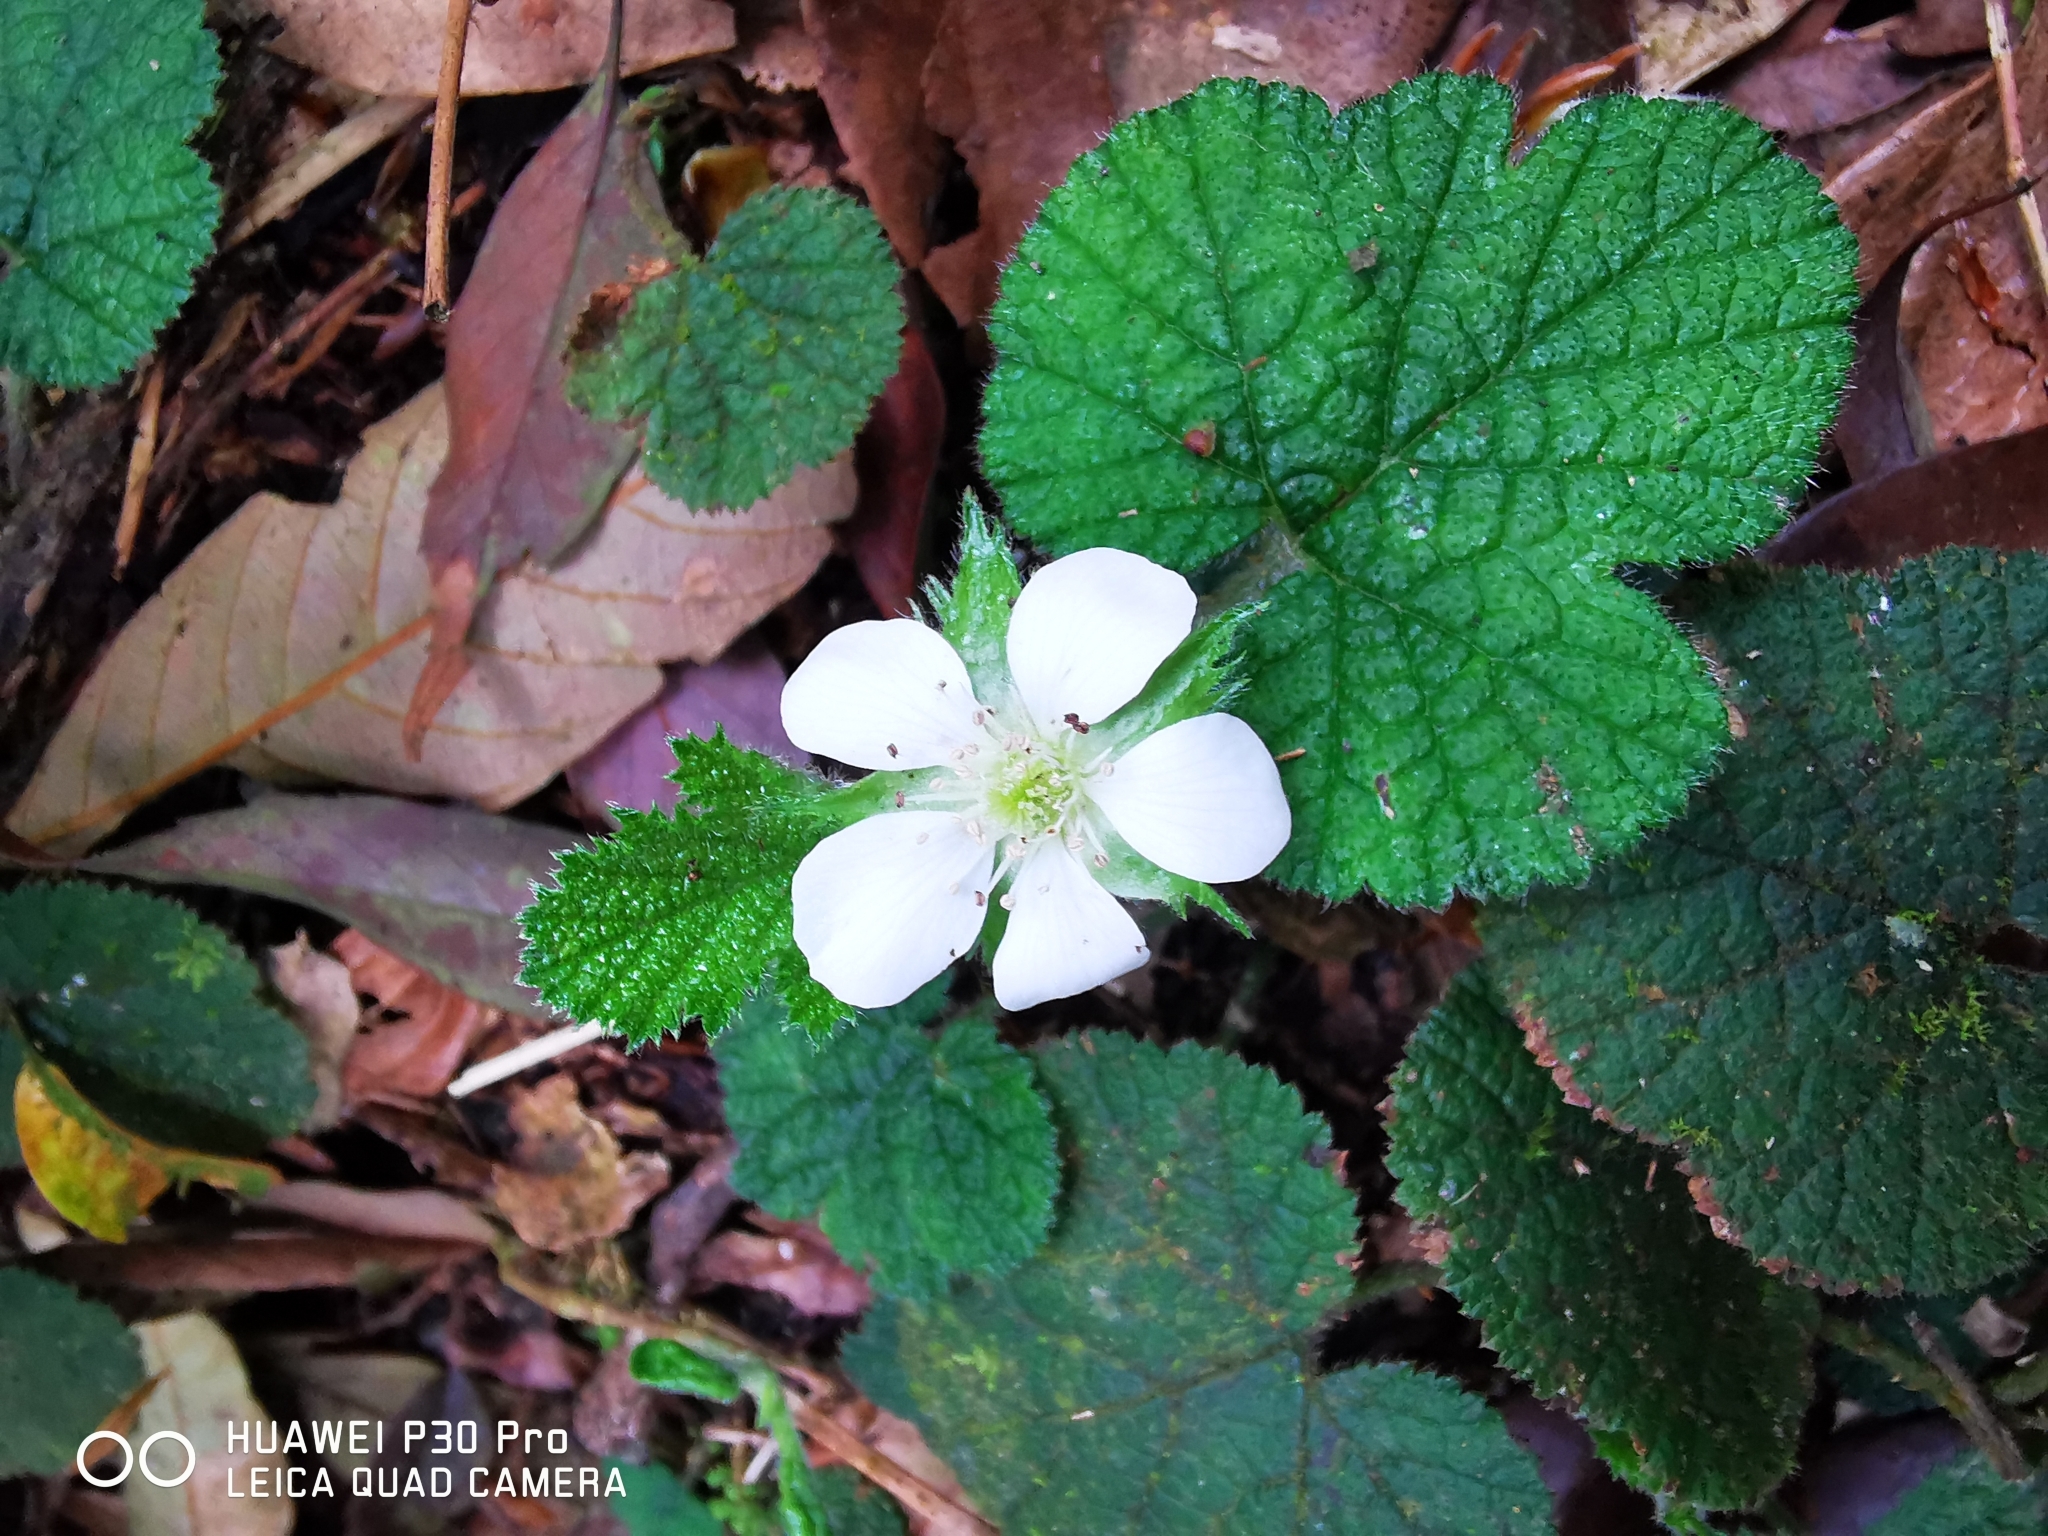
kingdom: Plantae
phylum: Tracheophyta
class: Magnoliopsida
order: Rosales
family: Rosaceae
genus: Rubus
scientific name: Rubus pectinellus
